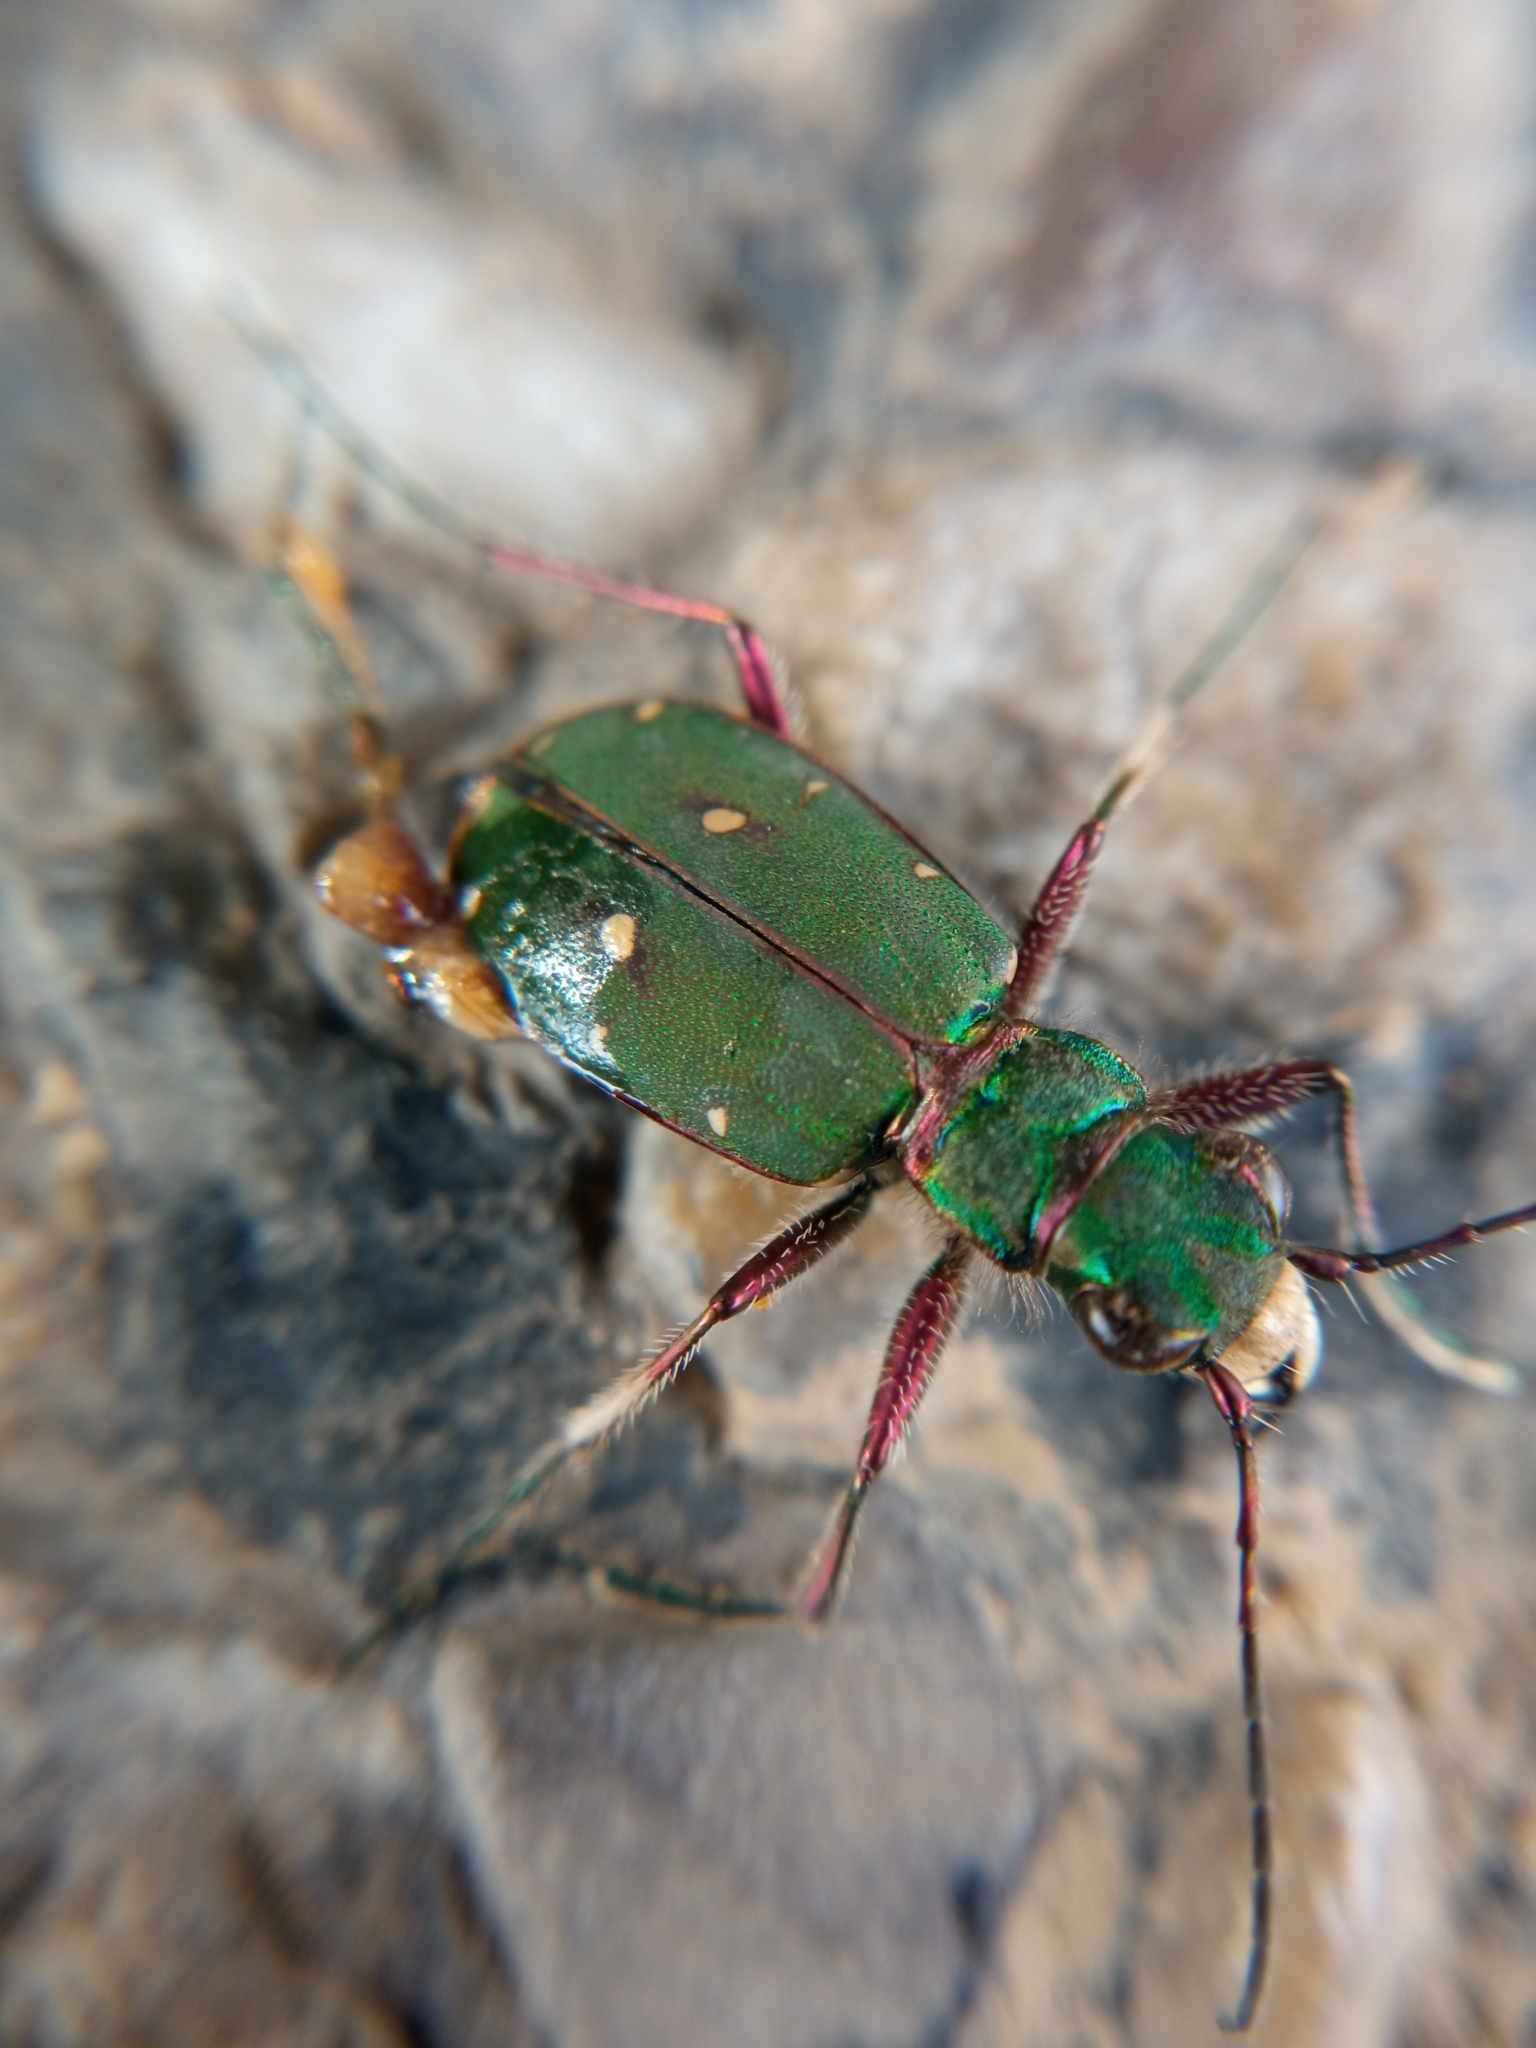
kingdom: Animalia
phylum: Arthropoda
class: Insecta
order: Coleoptera
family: Carabidae
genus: Cicindela
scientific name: Cicindela campestris
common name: Common tiger beetle
